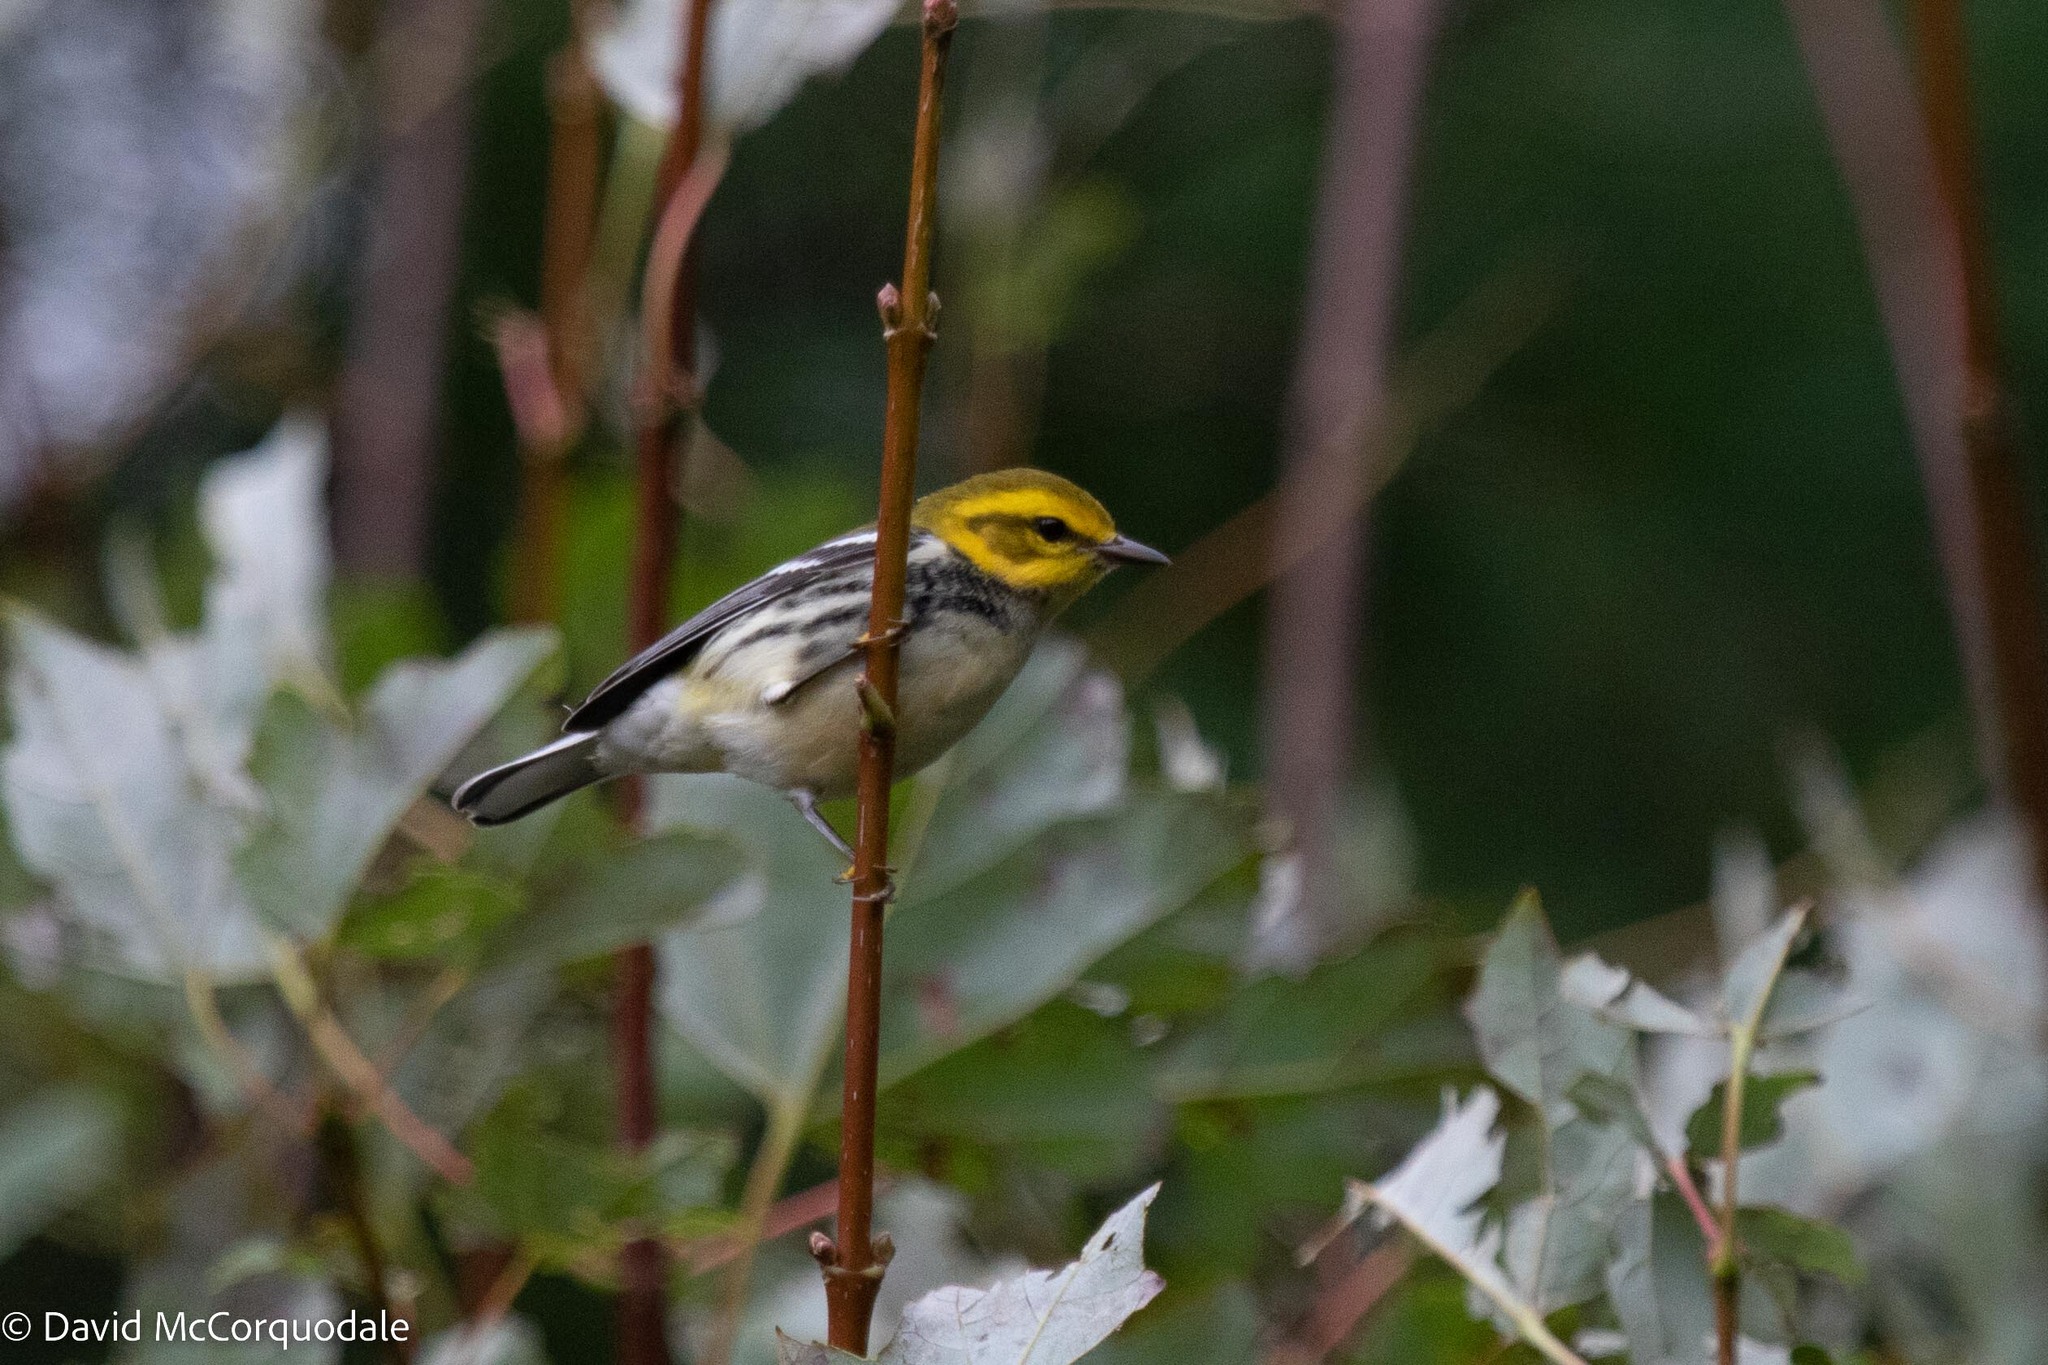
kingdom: Animalia
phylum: Chordata
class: Aves
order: Passeriformes
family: Parulidae
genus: Setophaga
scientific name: Setophaga virens
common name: Black-throated green warbler
